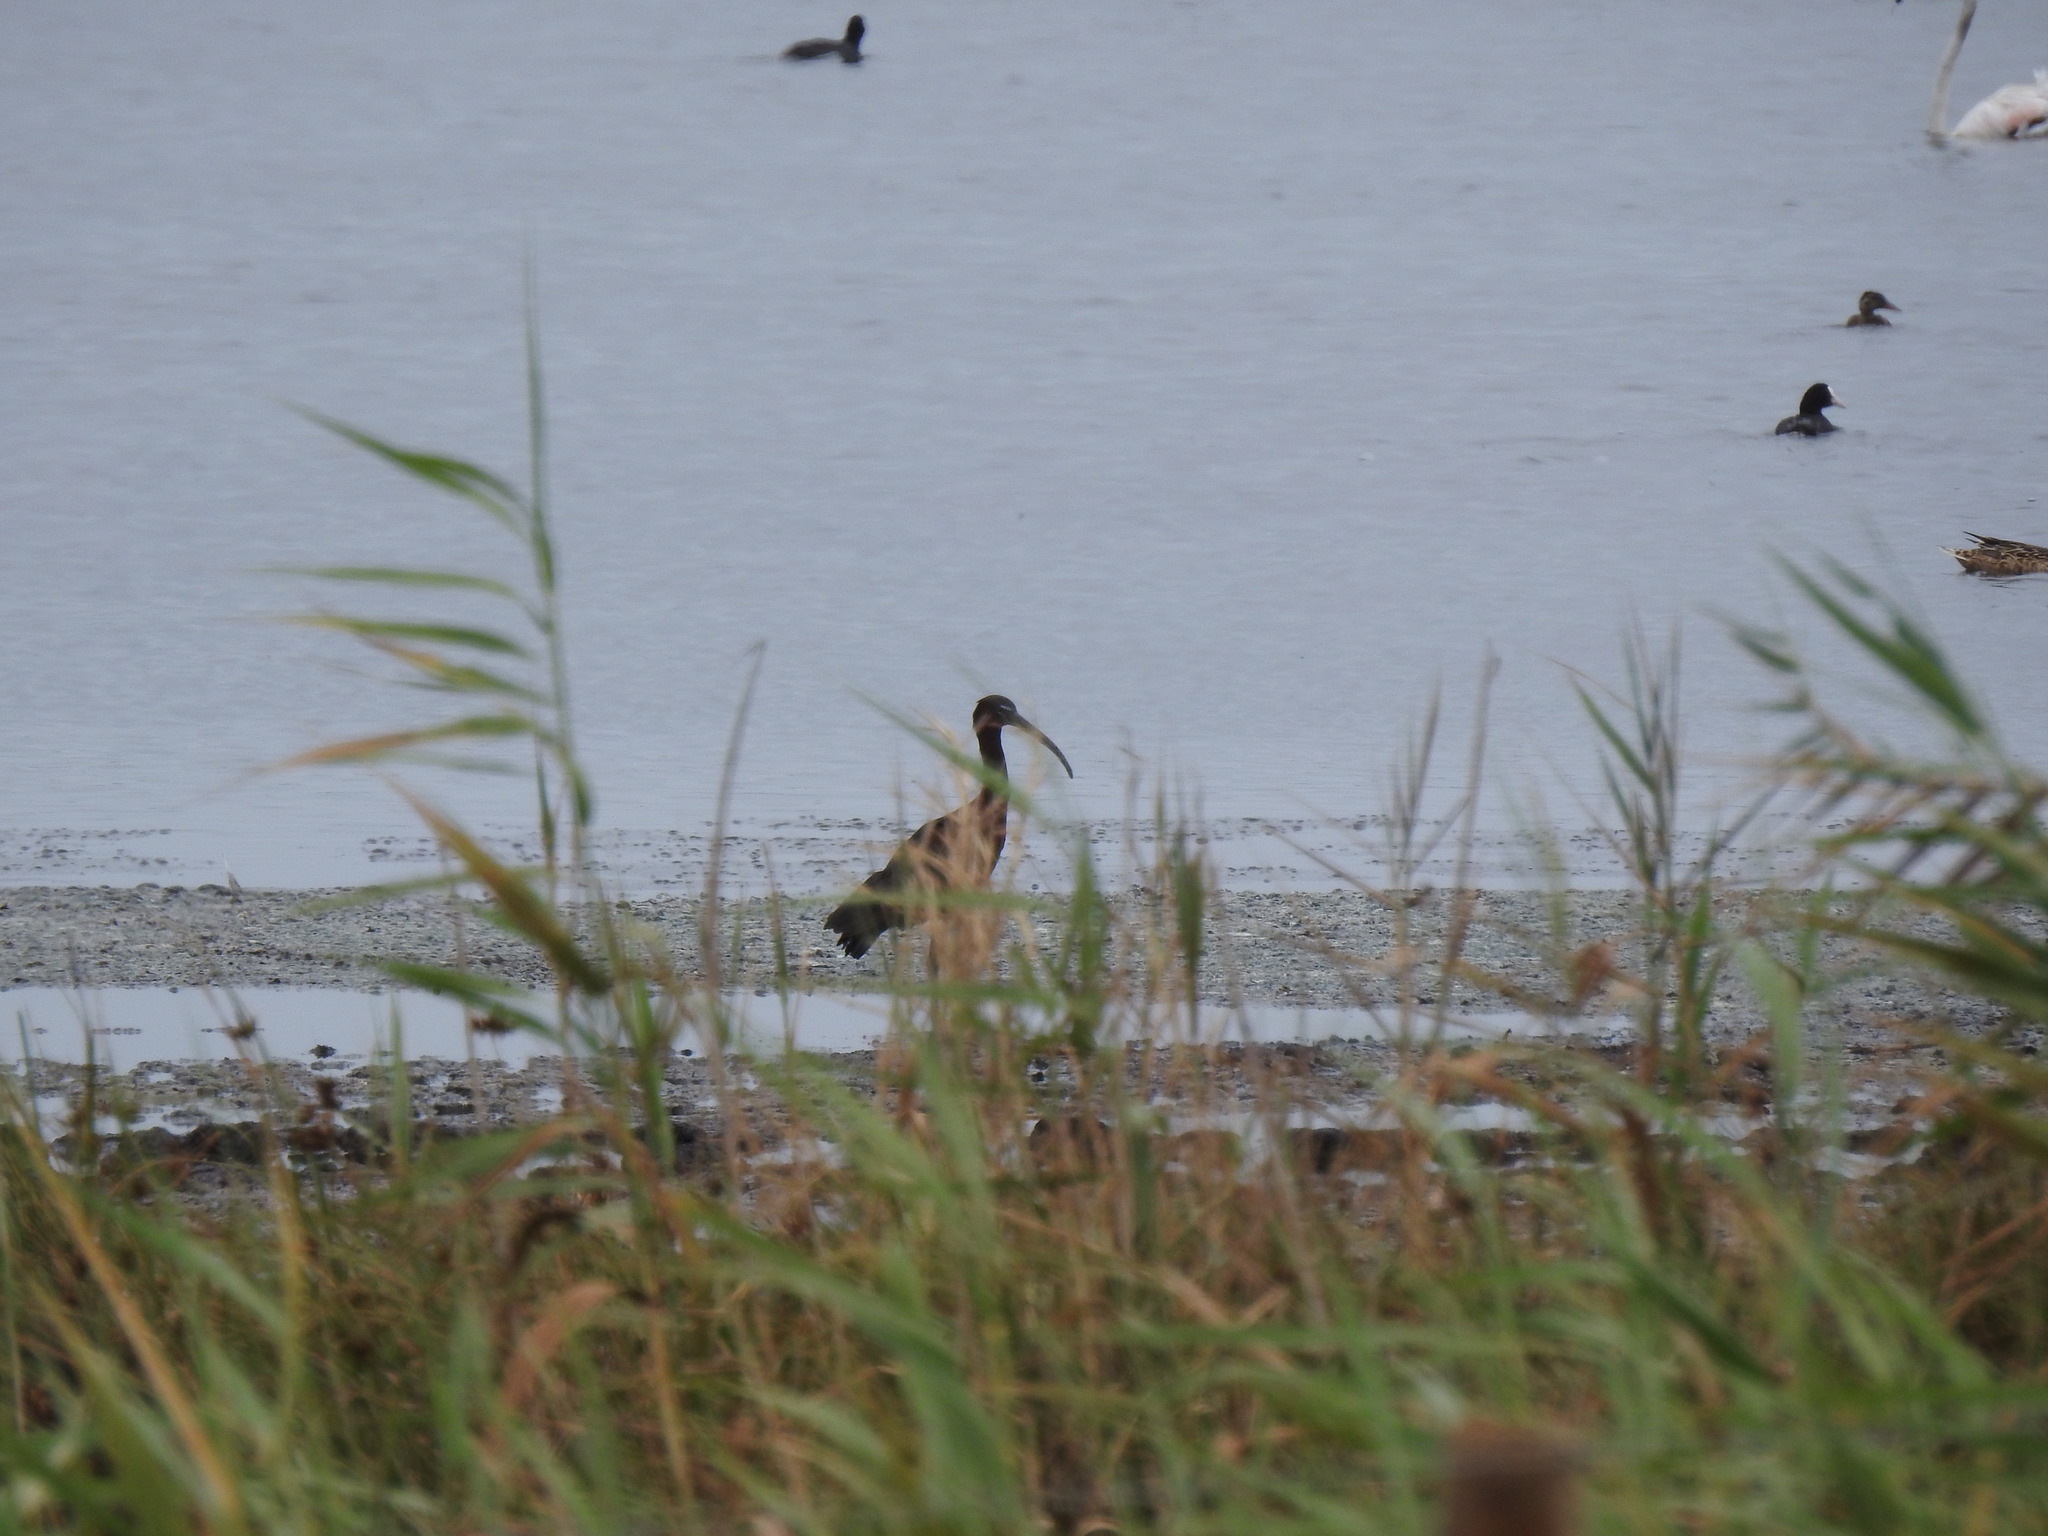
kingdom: Animalia
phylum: Chordata
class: Aves
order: Pelecaniformes
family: Threskiornithidae
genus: Plegadis
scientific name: Plegadis falcinellus
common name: Glossy ibis
